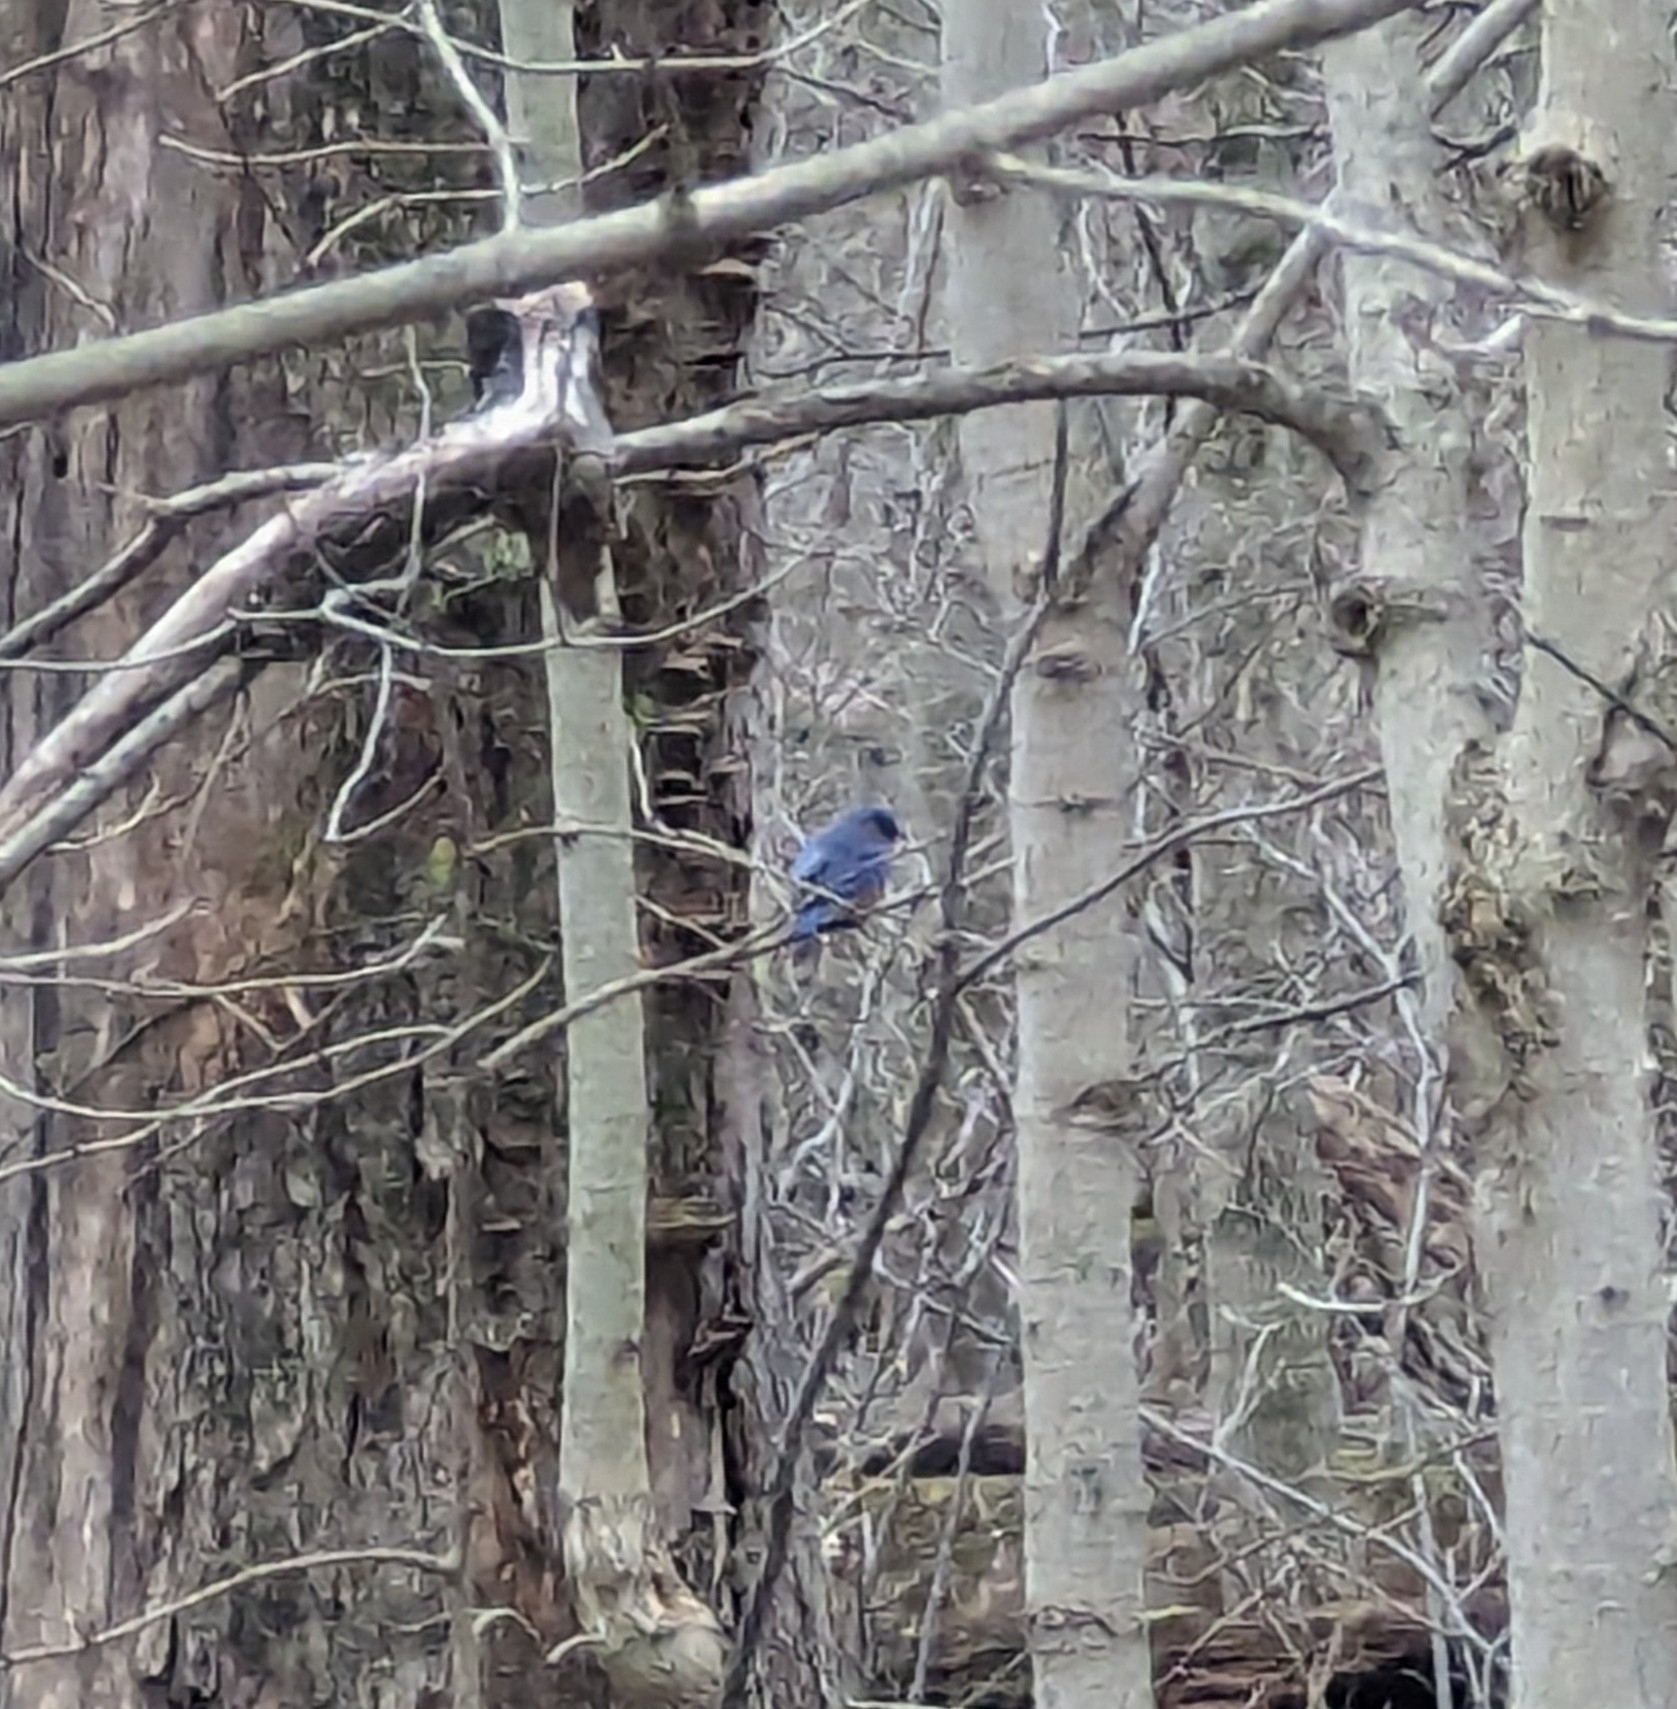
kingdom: Animalia
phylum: Chordata
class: Aves
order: Passeriformes
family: Turdidae
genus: Sialia
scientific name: Sialia sialis
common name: Eastern bluebird
